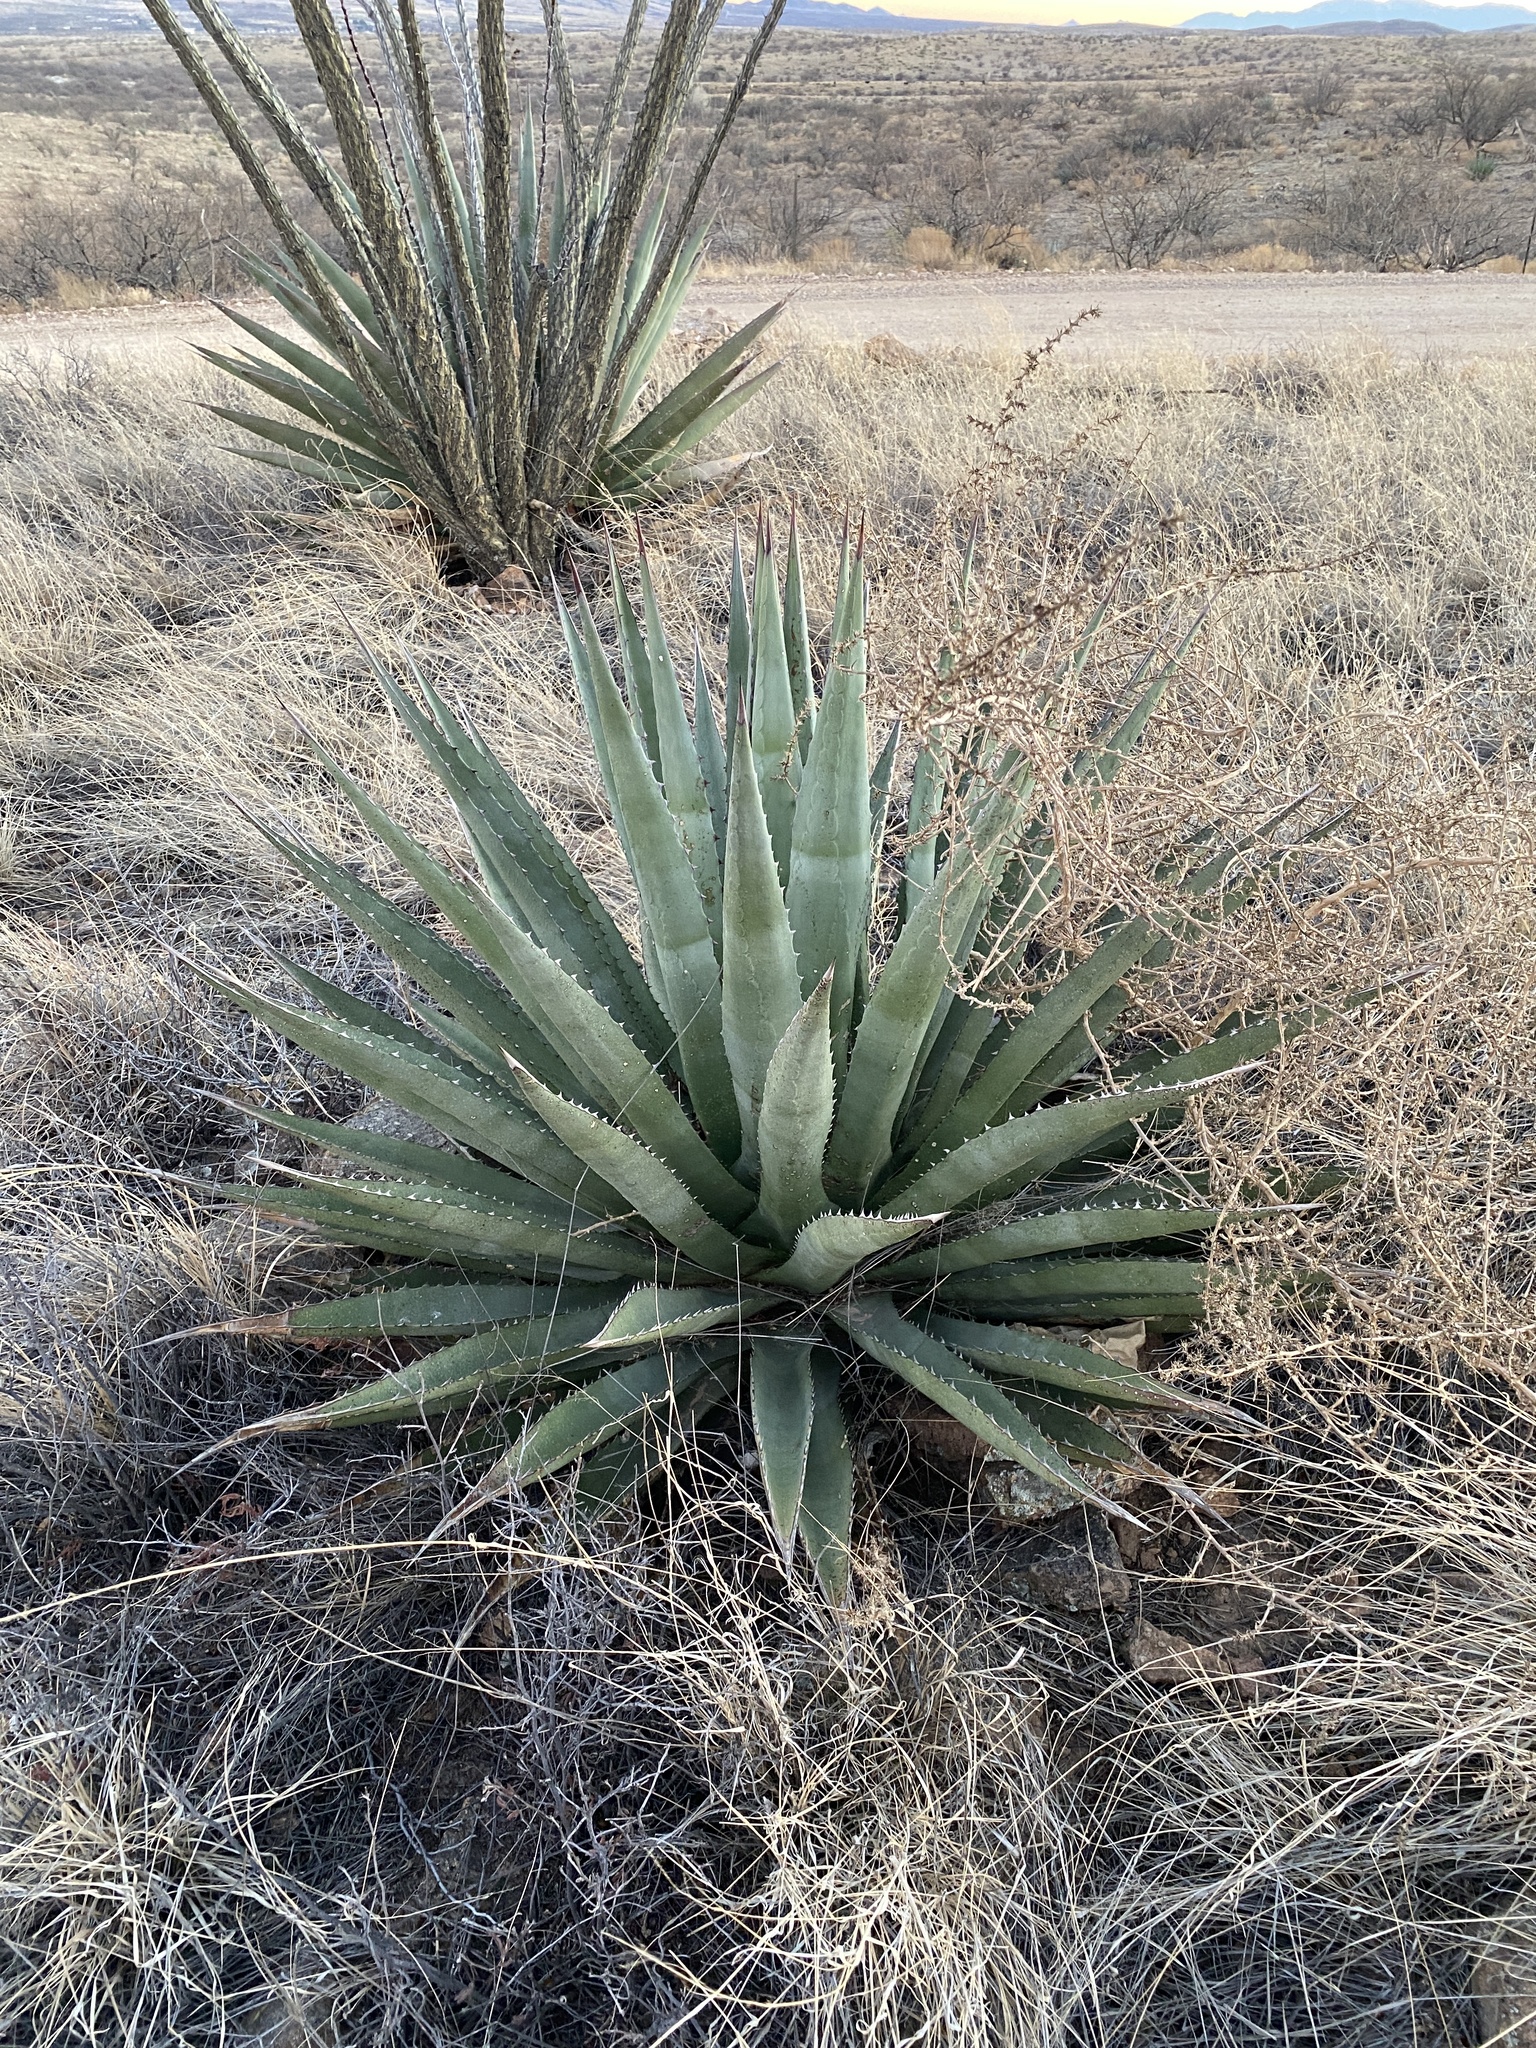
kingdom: Plantae
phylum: Tracheophyta
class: Liliopsida
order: Asparagales
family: Asparagaceae
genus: Agave
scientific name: Agave palmeri
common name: Palmer agave
